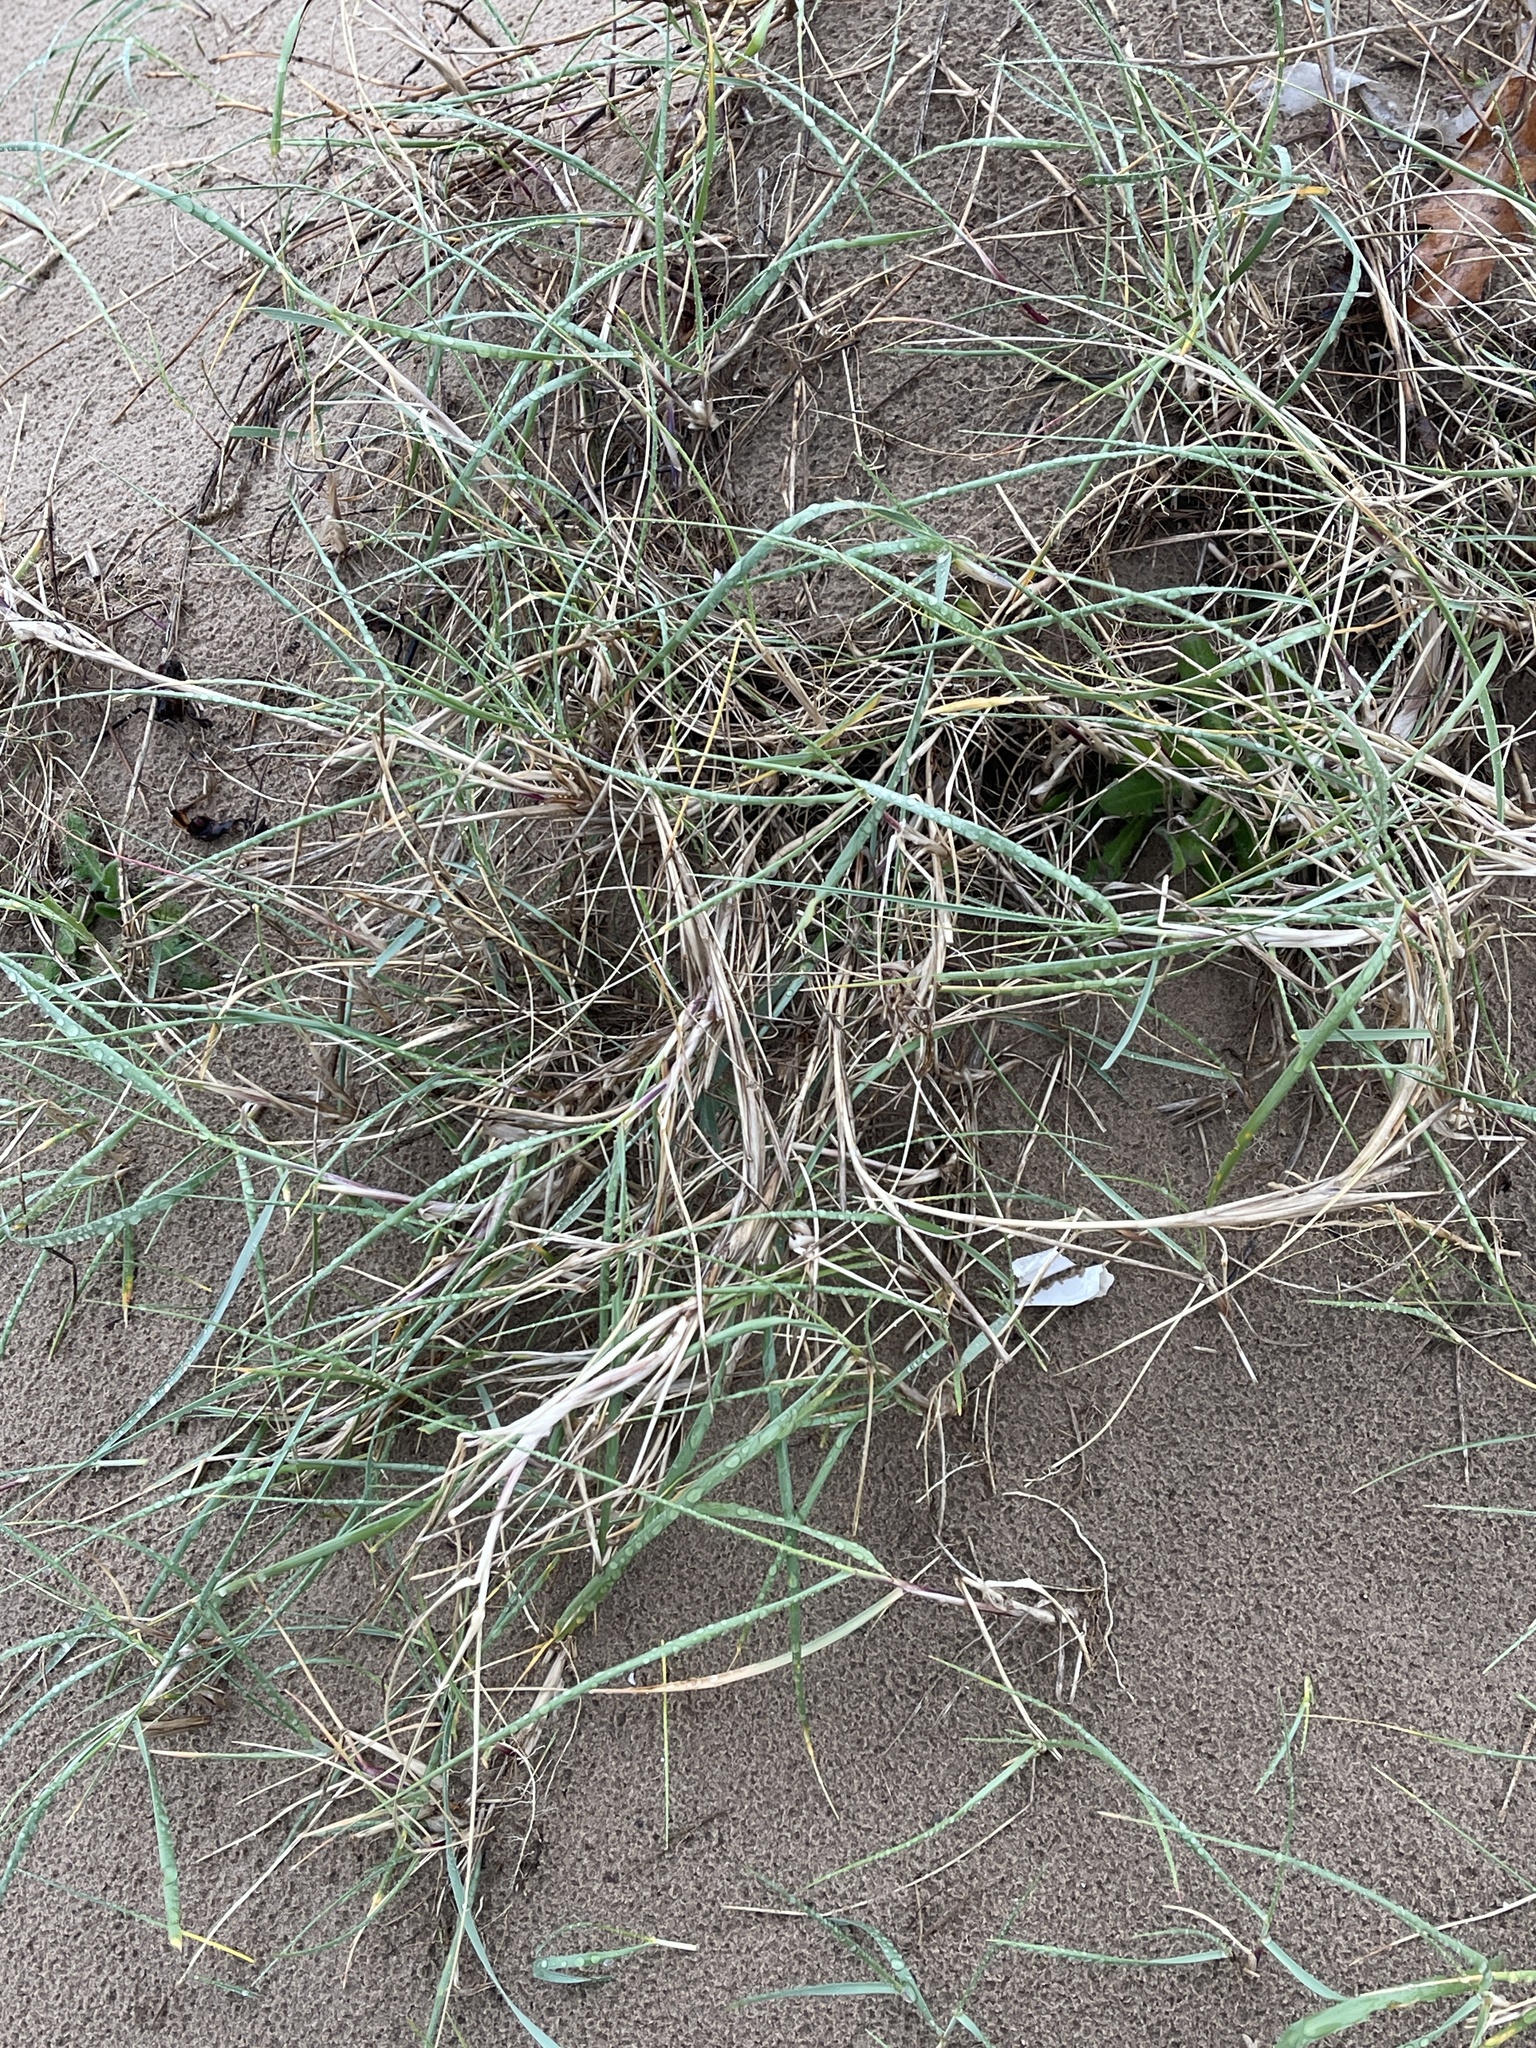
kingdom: Plantae
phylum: Tracheophyta
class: Liliopsida
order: Poales
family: Poaceae
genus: Thinopyrum
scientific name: Thinopyrum junceum
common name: Russian wheatgrass
